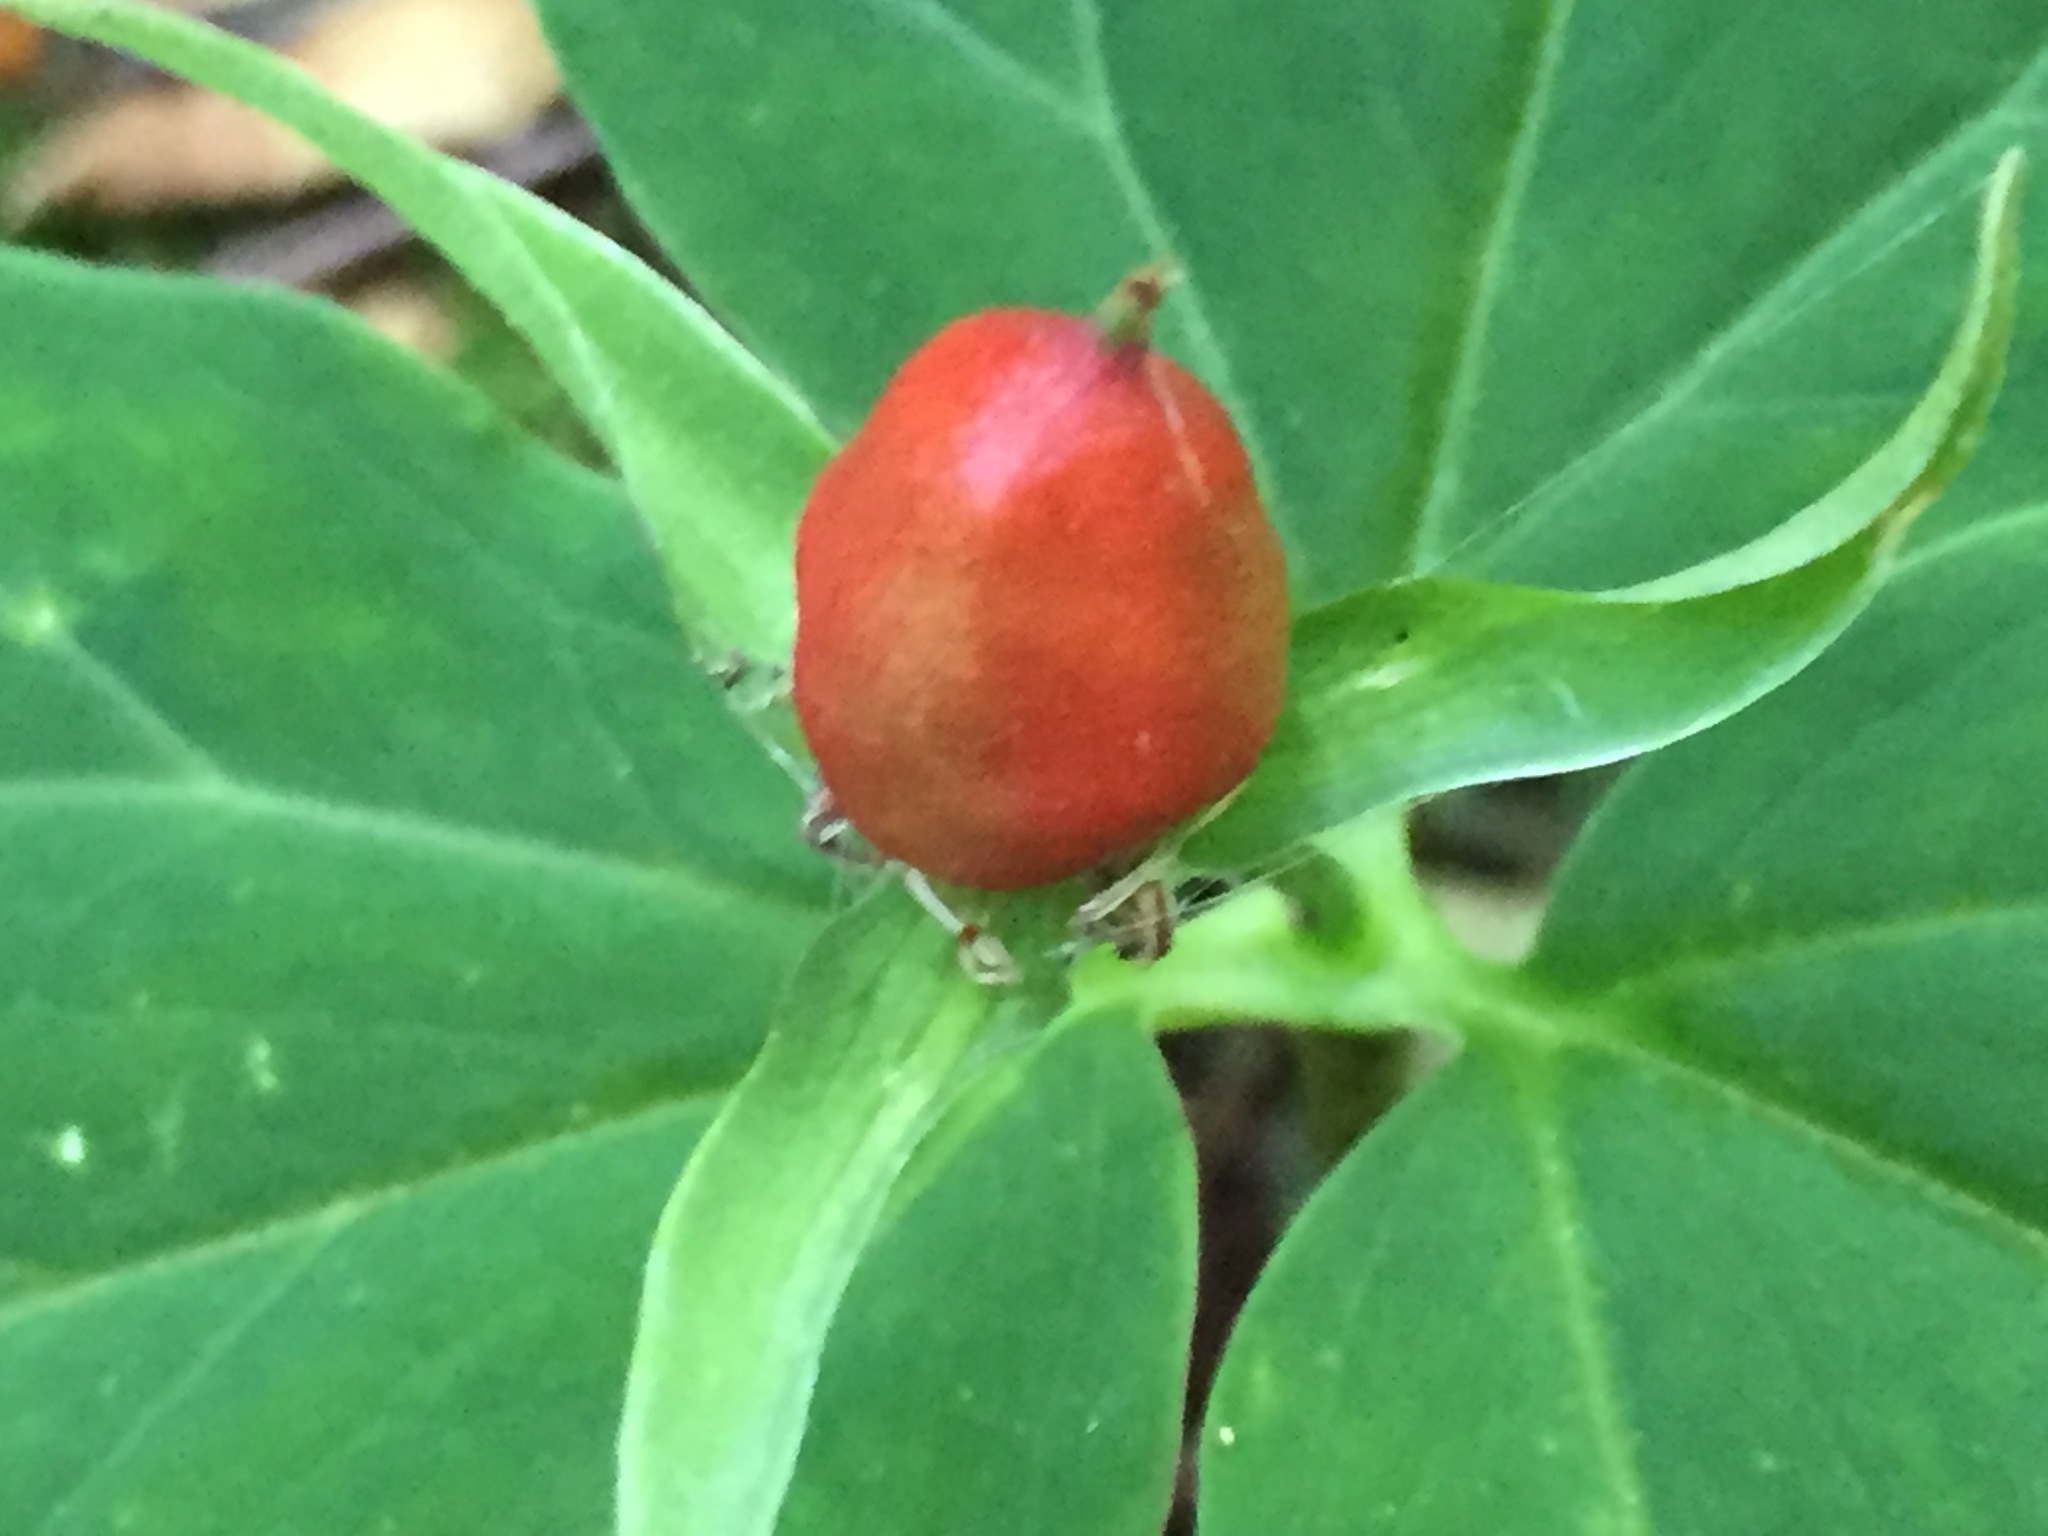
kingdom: Plantae
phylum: Tracheophyta
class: Liliopsida
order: Liliales
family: Melanthiaceae
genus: Trillium
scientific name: Trillium undulatum
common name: Paint trillium
